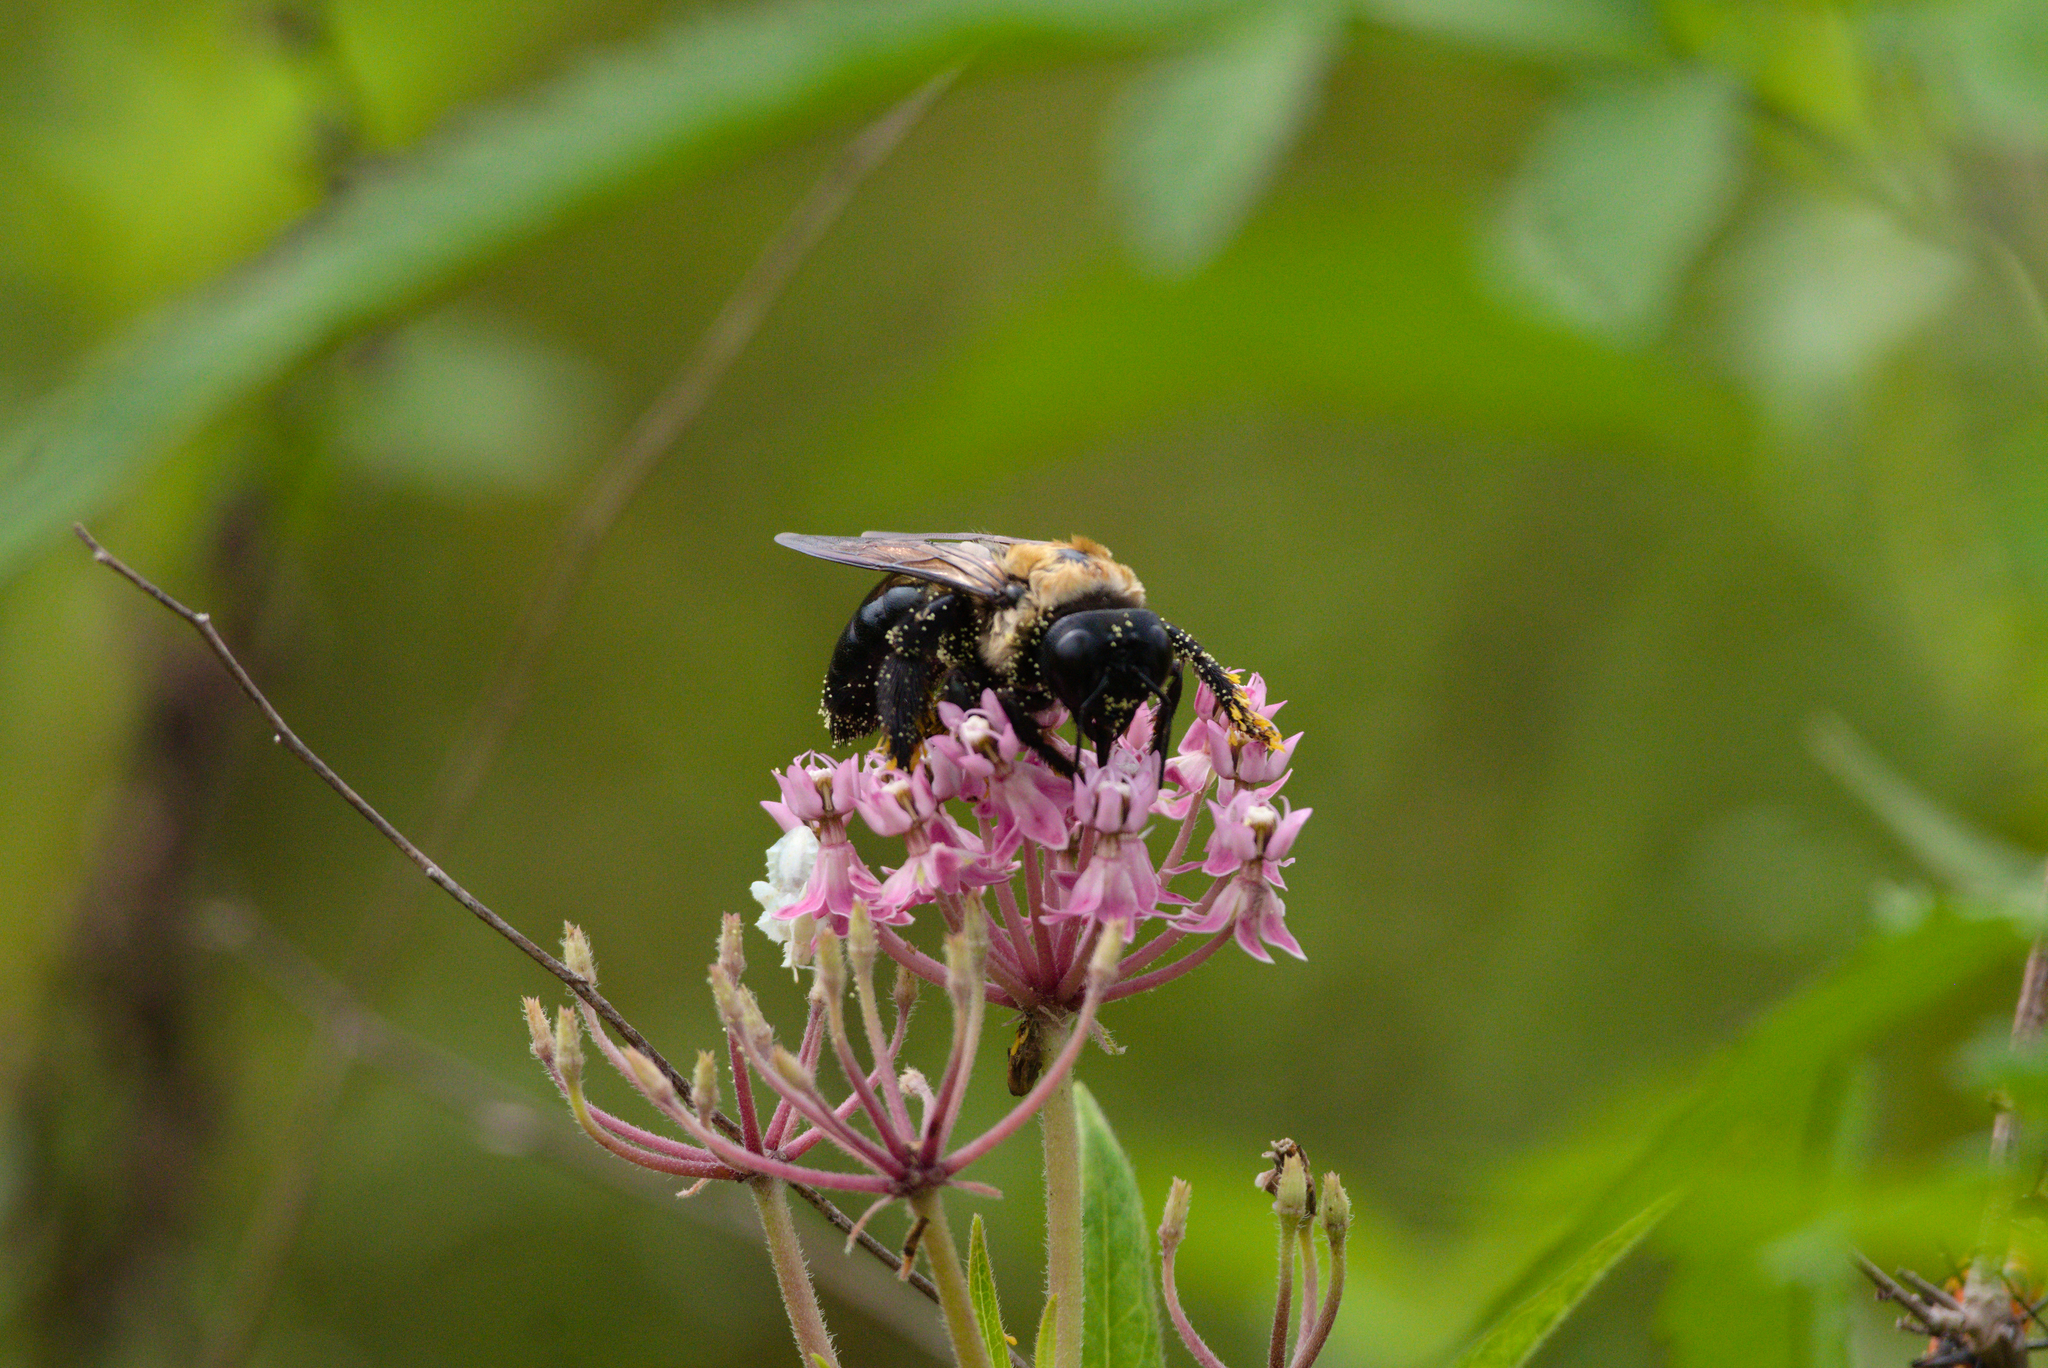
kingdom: Animalia
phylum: Arthropoda
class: Insecta
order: Hymenoptera
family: Apidae
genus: Xylocopa
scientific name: Xylocopa virginica
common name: Carpenter bee
